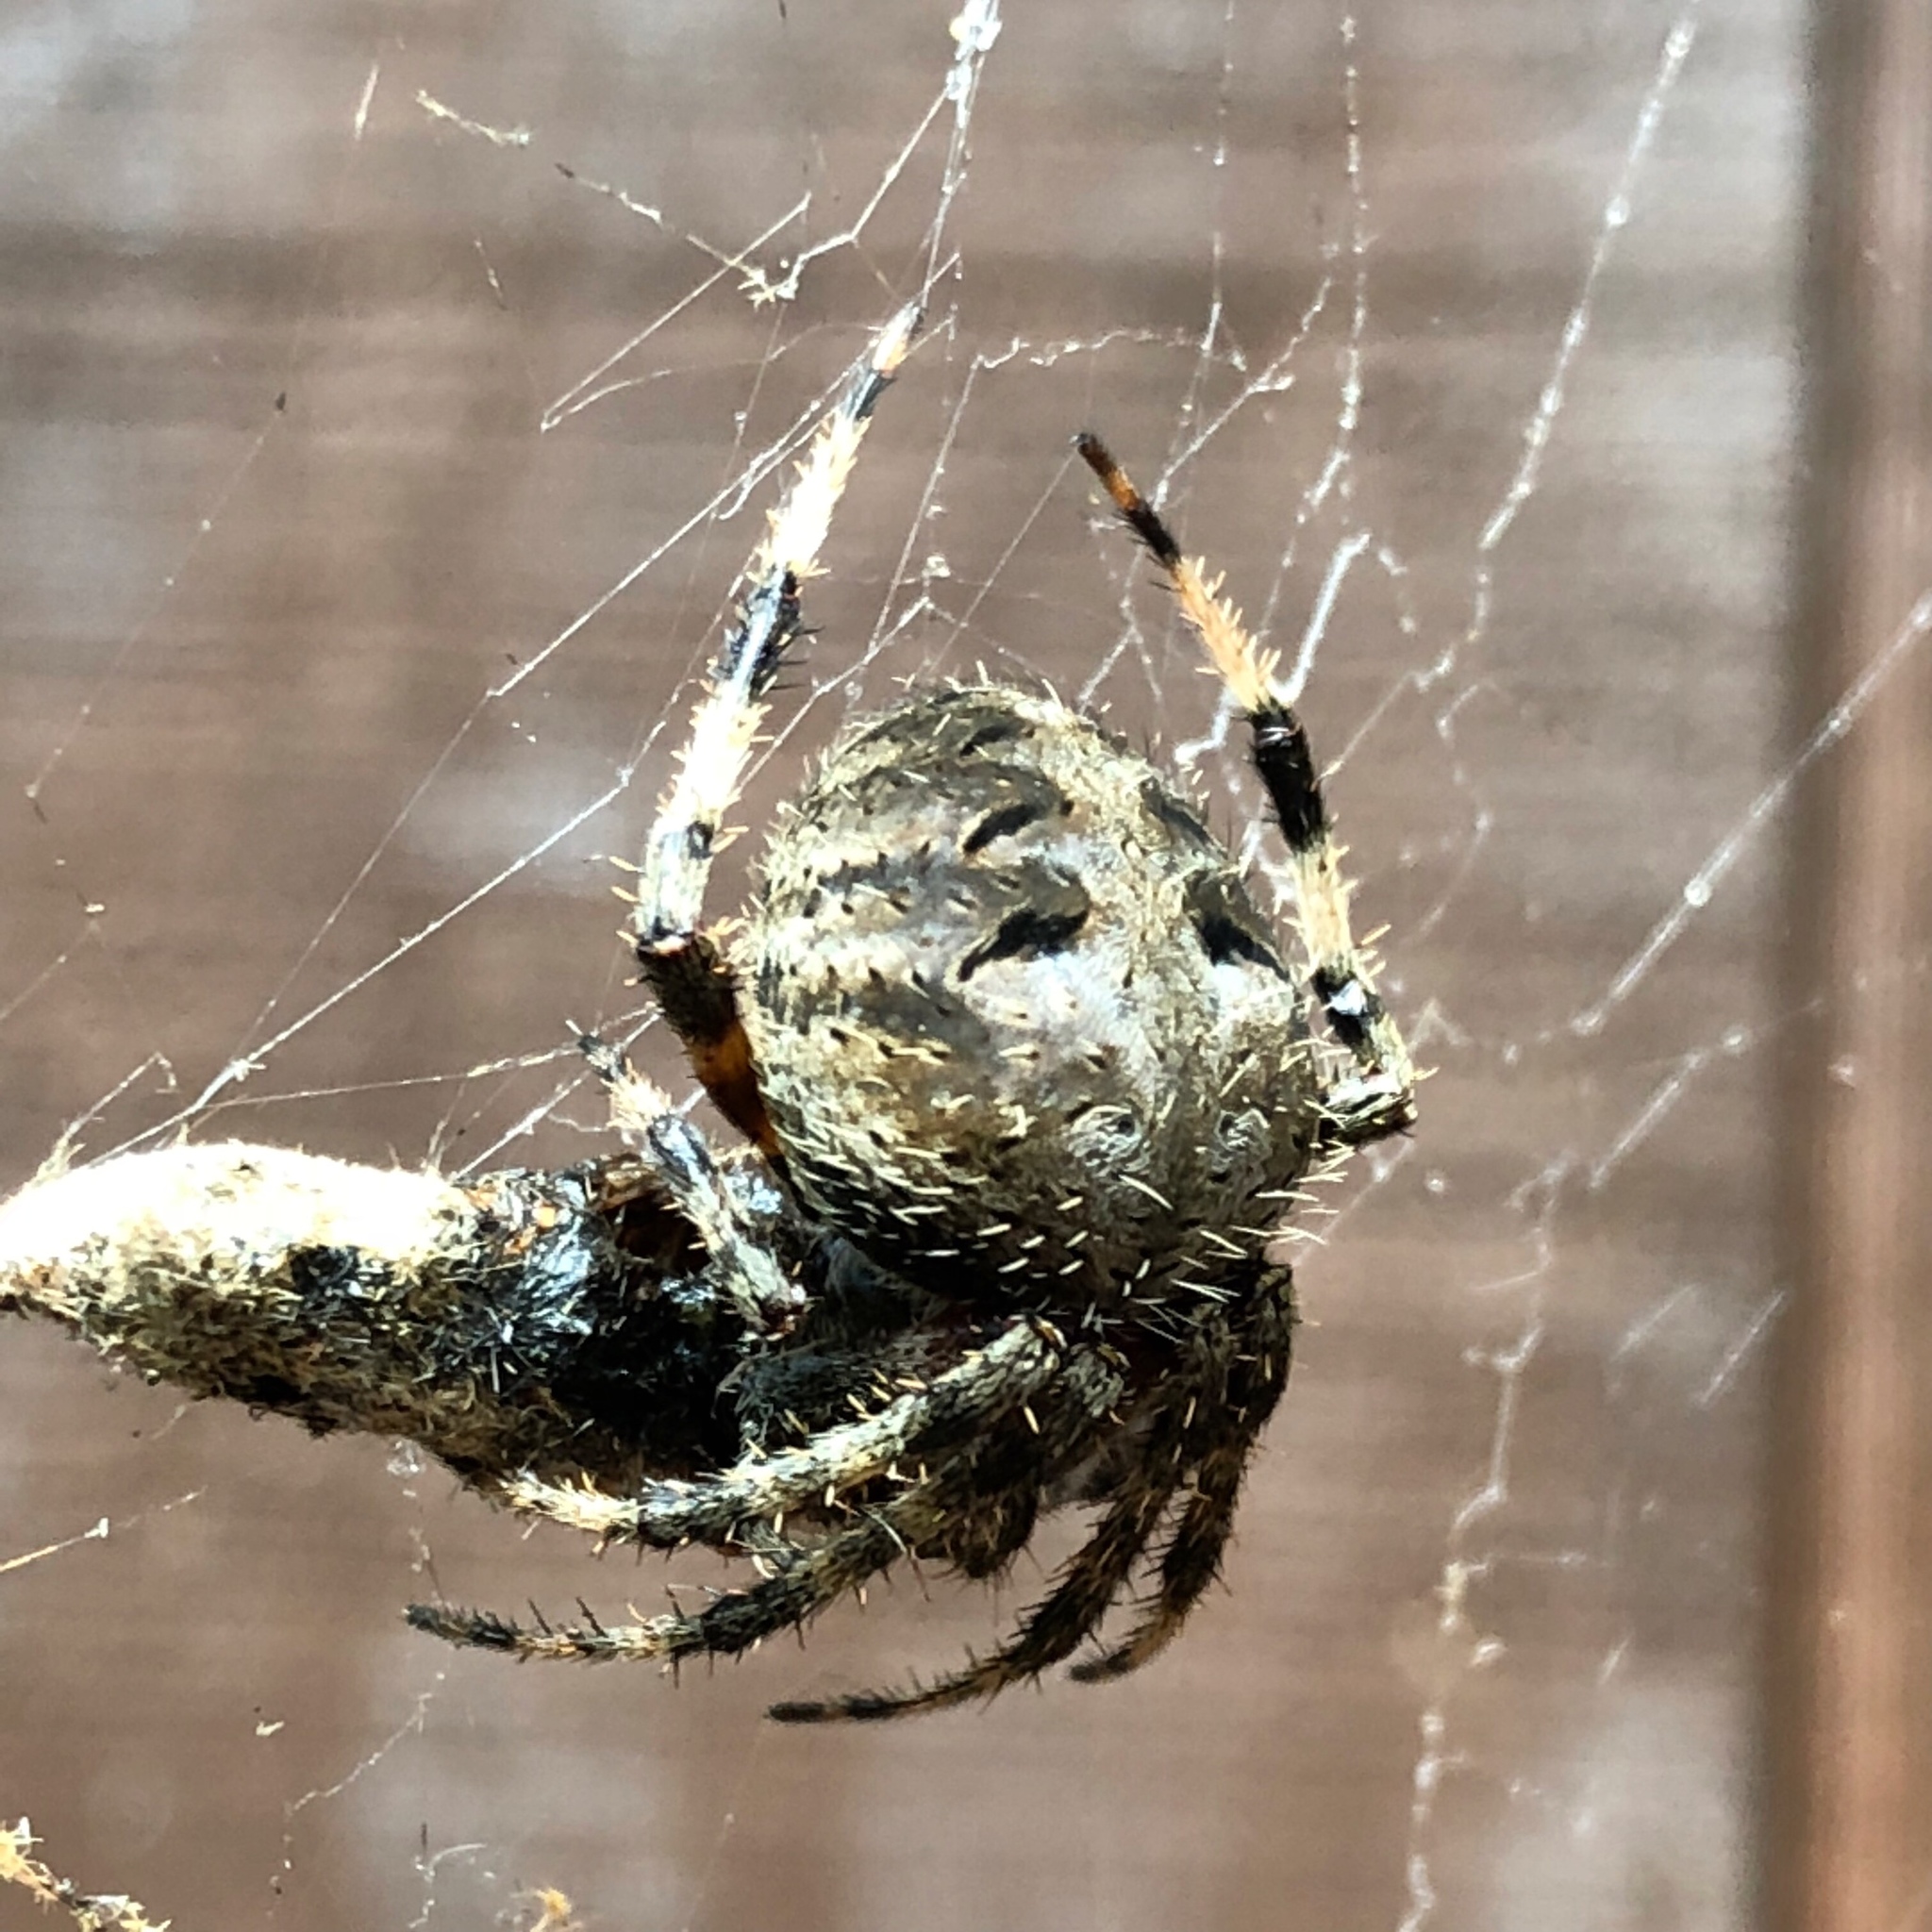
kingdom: Animalia
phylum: Arthropoda
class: Arachnida
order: Araneae
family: Araneidae
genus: Neoscona
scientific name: Neoscona crucifera
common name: Spotted orbweaver
